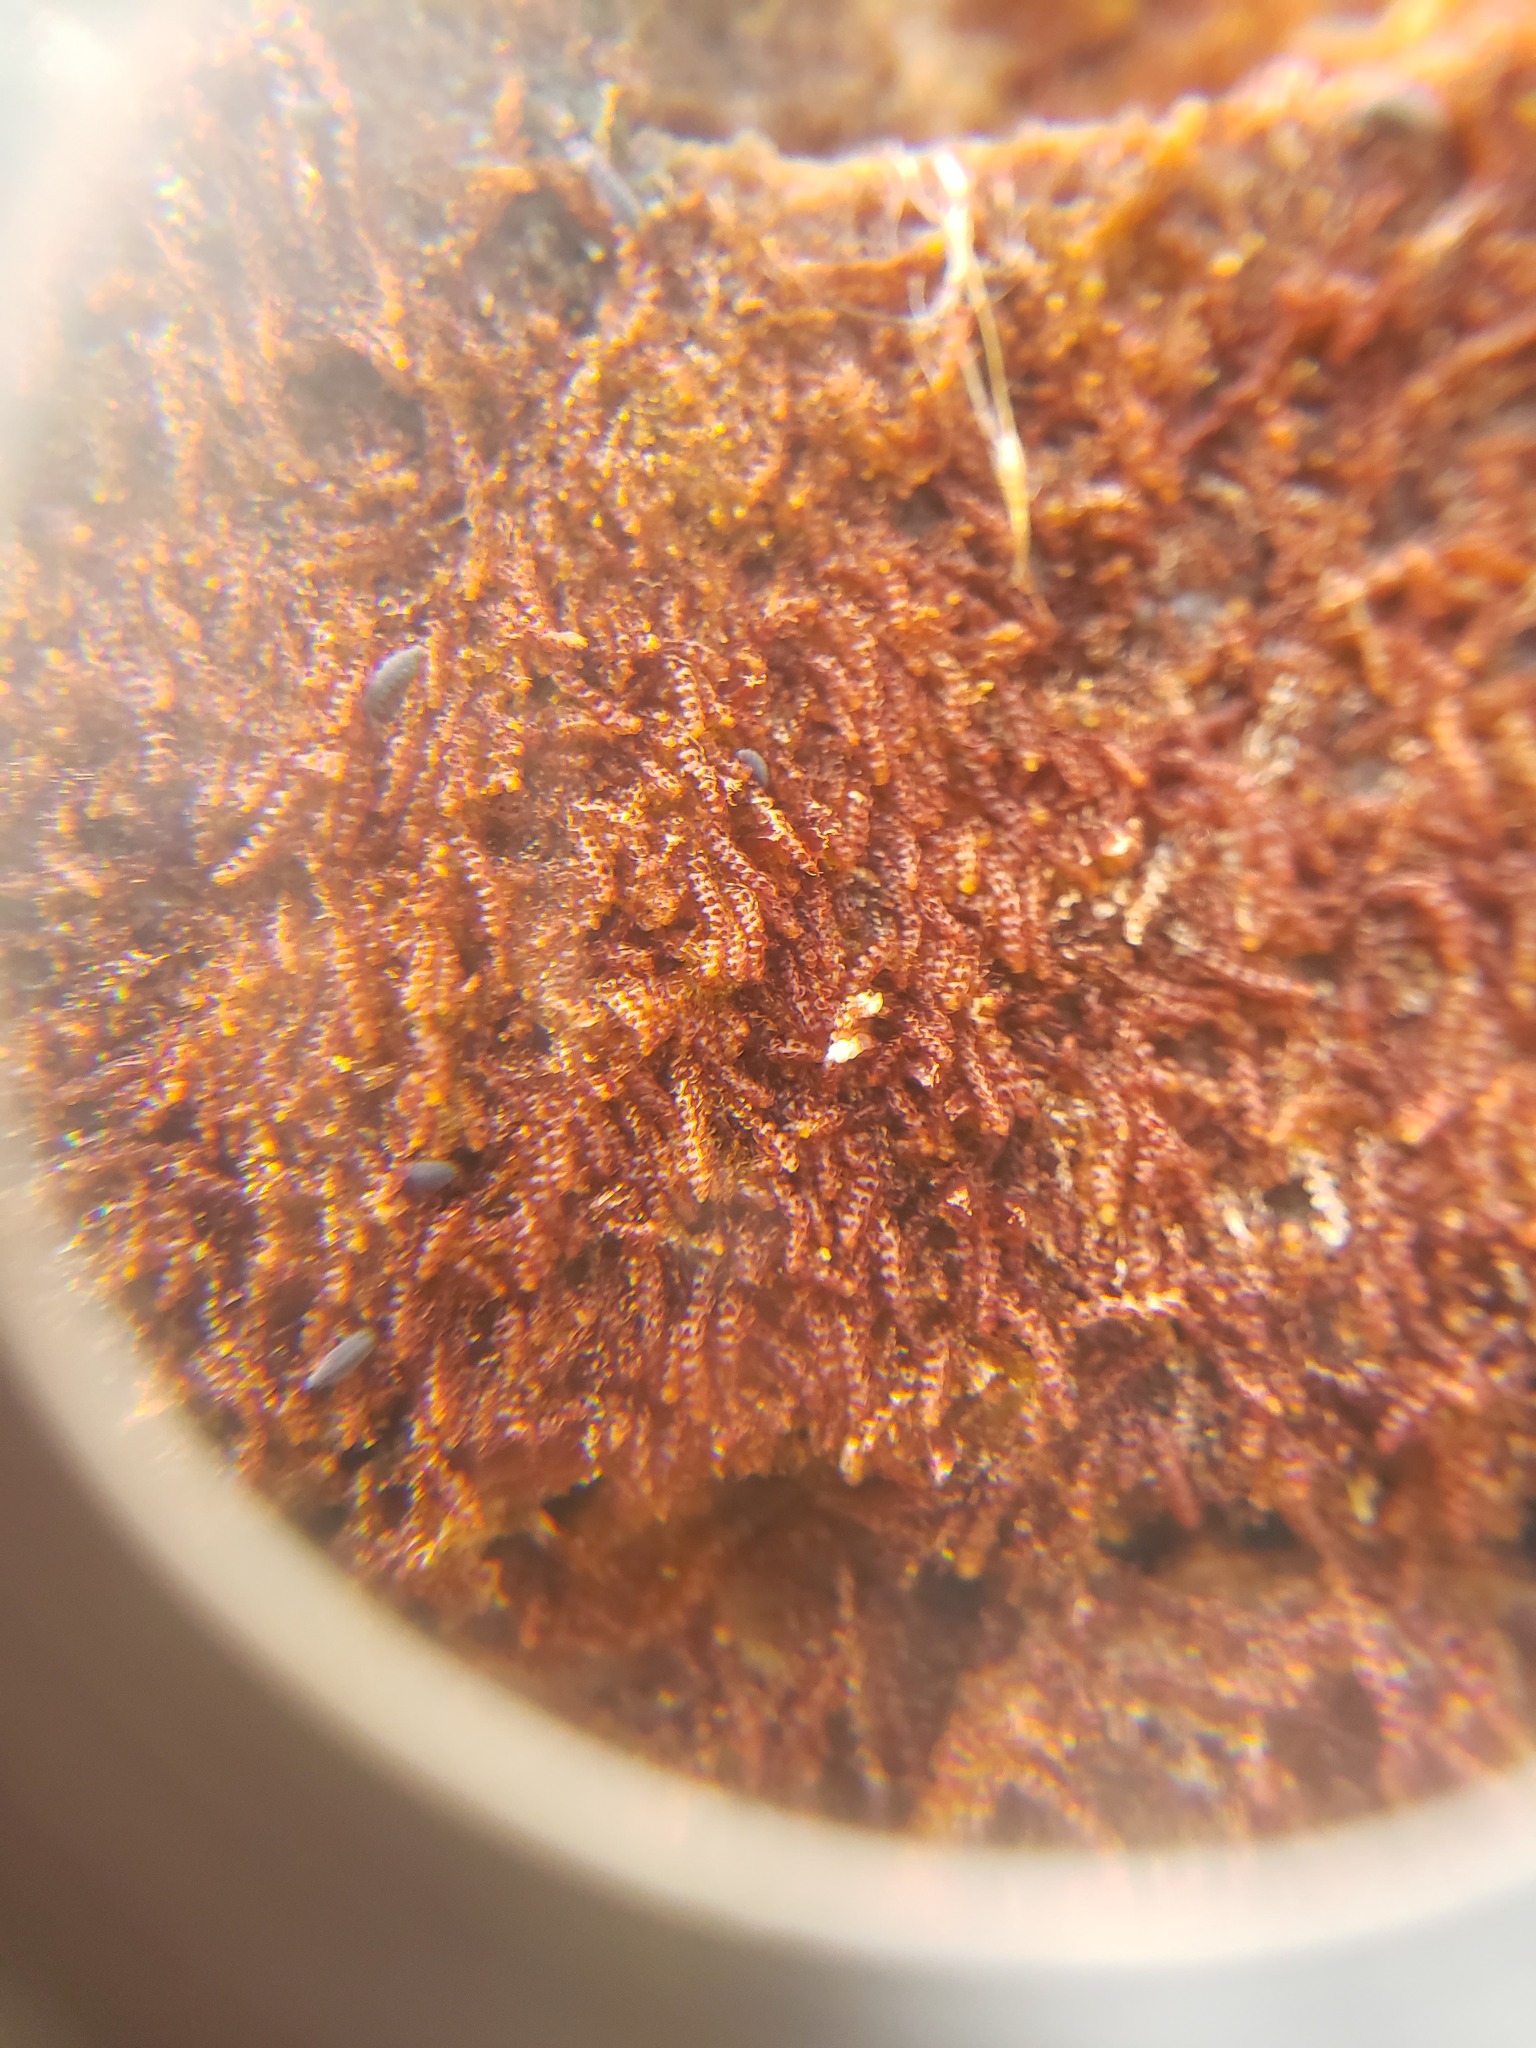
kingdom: Plantae
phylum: Marchantiophyta
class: Jungermanniopsida
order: Jungermanniales
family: Cephaloziaceae
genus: Nowellia
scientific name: Nowellia curvifolia
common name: Wood rustwort
